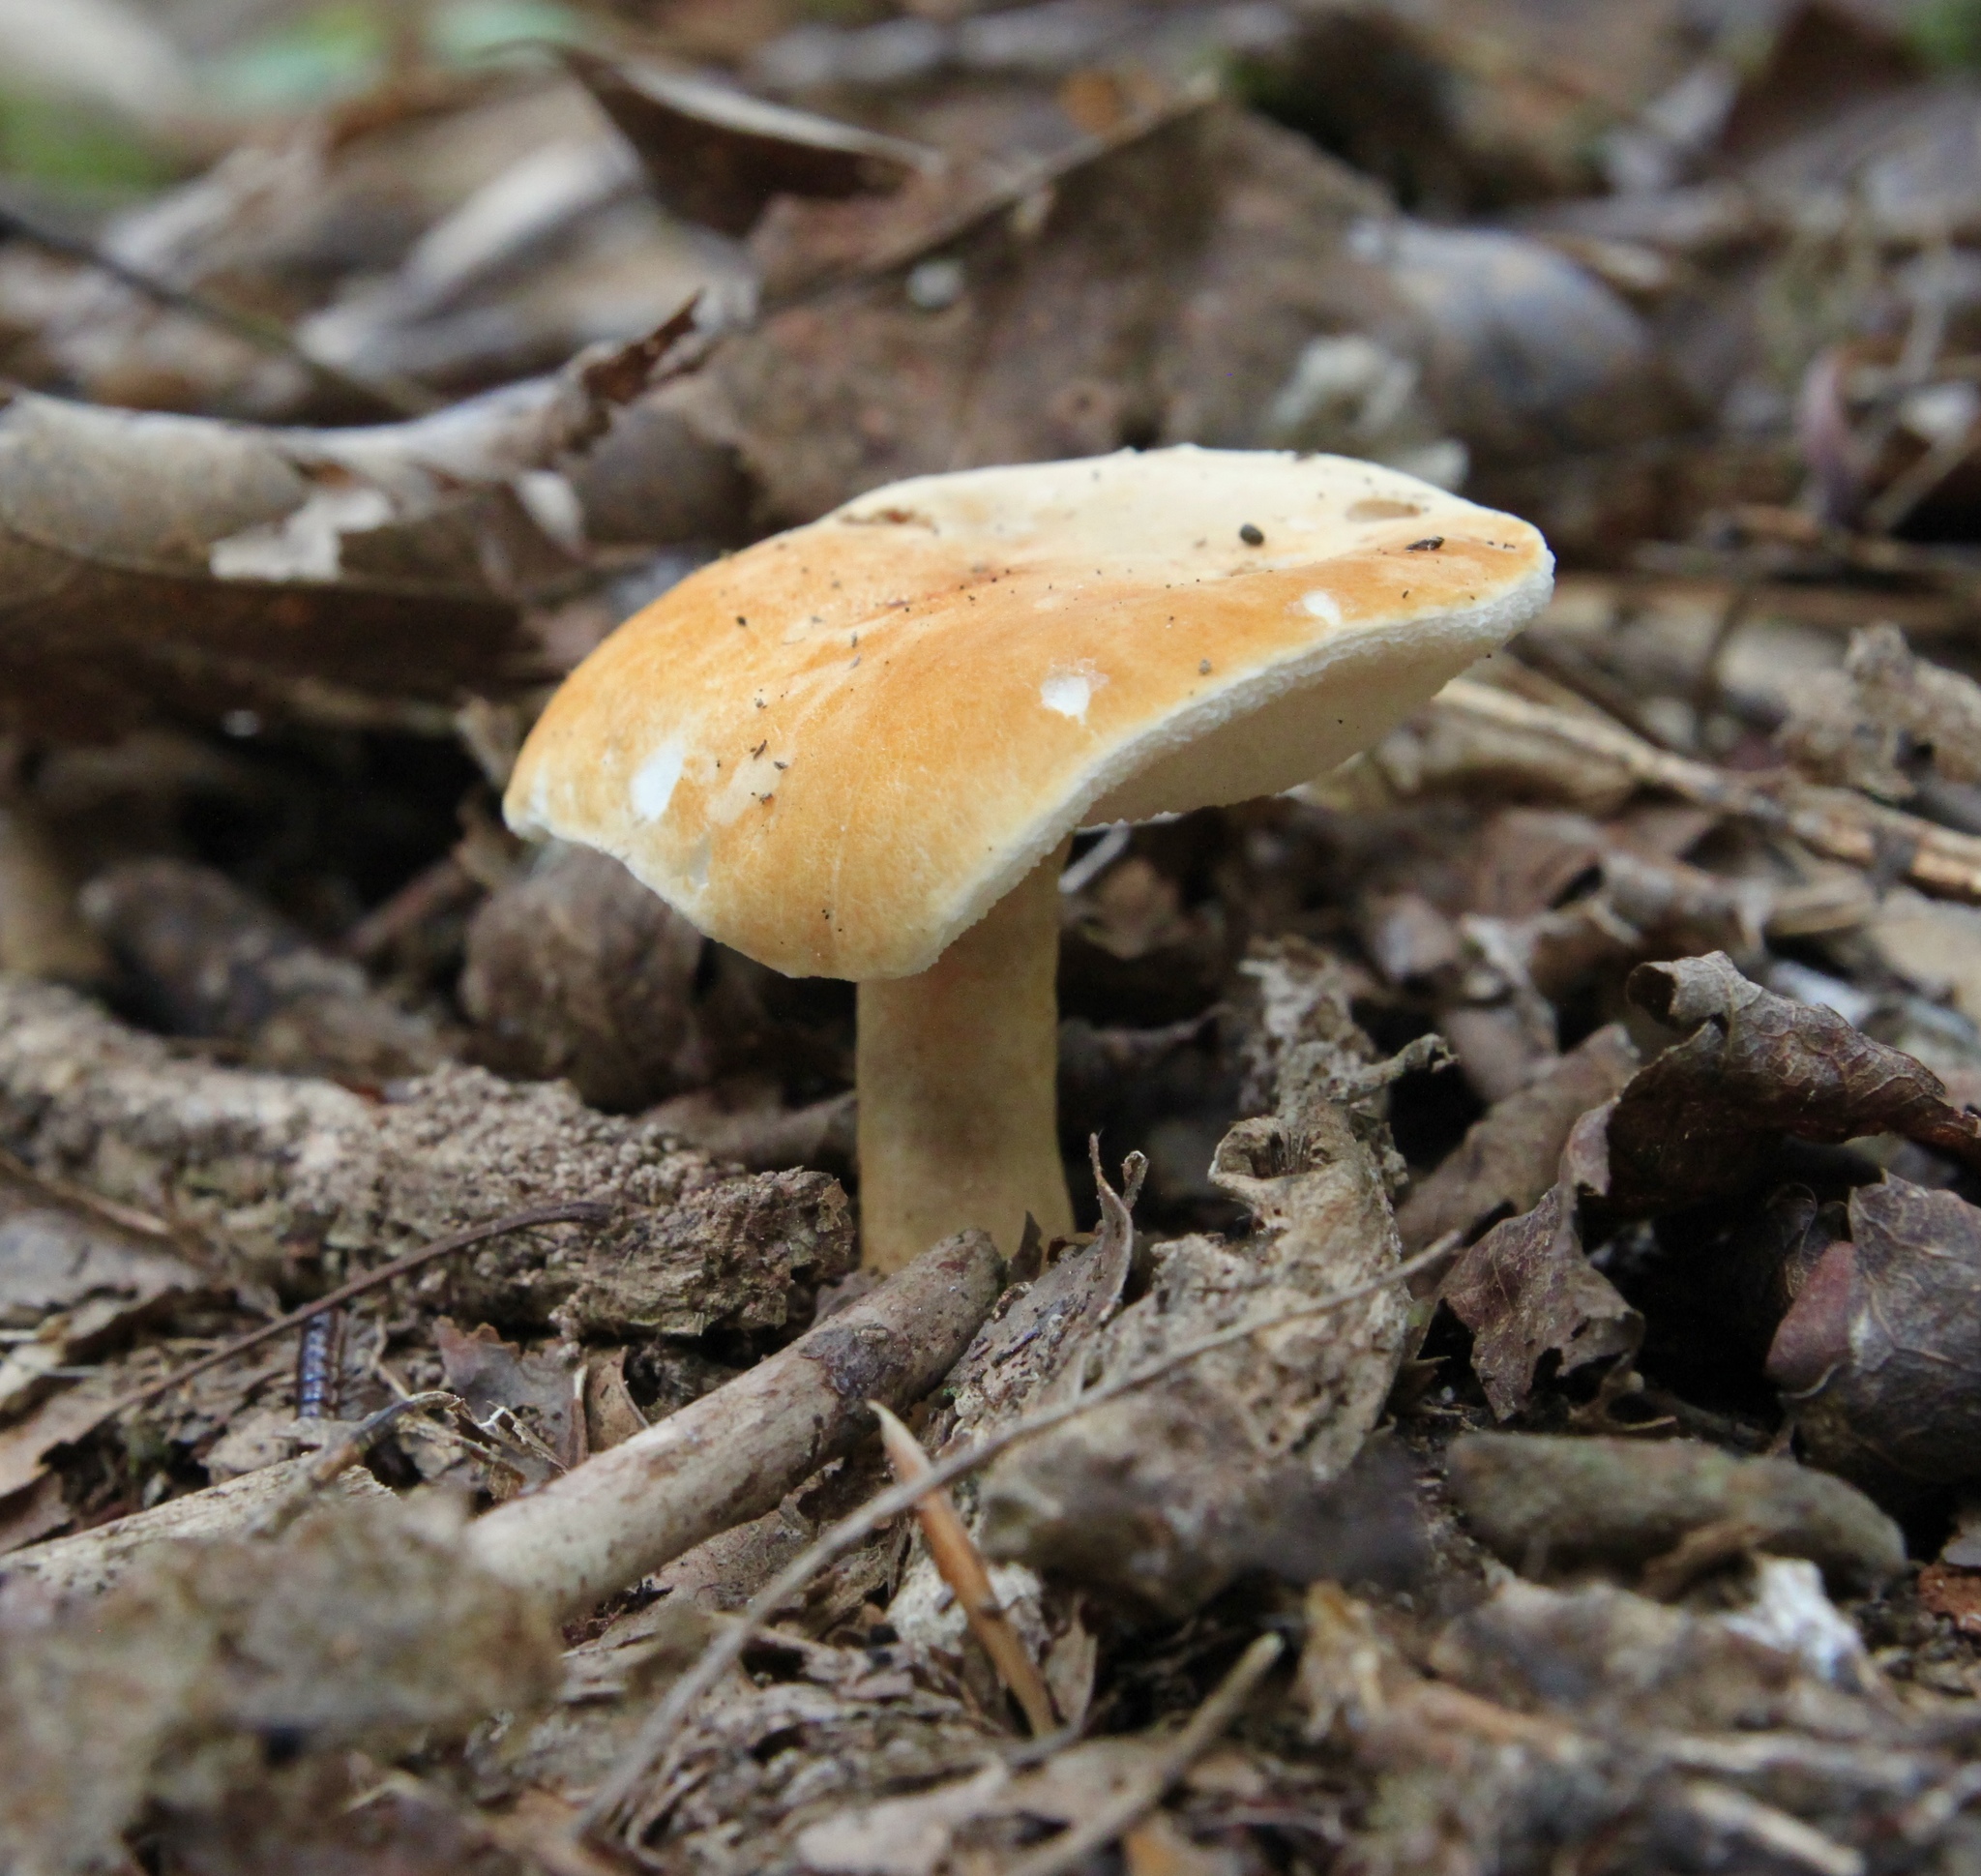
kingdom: Fungi
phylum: Basidiomycota
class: Agaricomycetes
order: Boletales
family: Gyroporaceae
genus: Gyroporus
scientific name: Gyroporus castaneus
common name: Chestnut bolete
